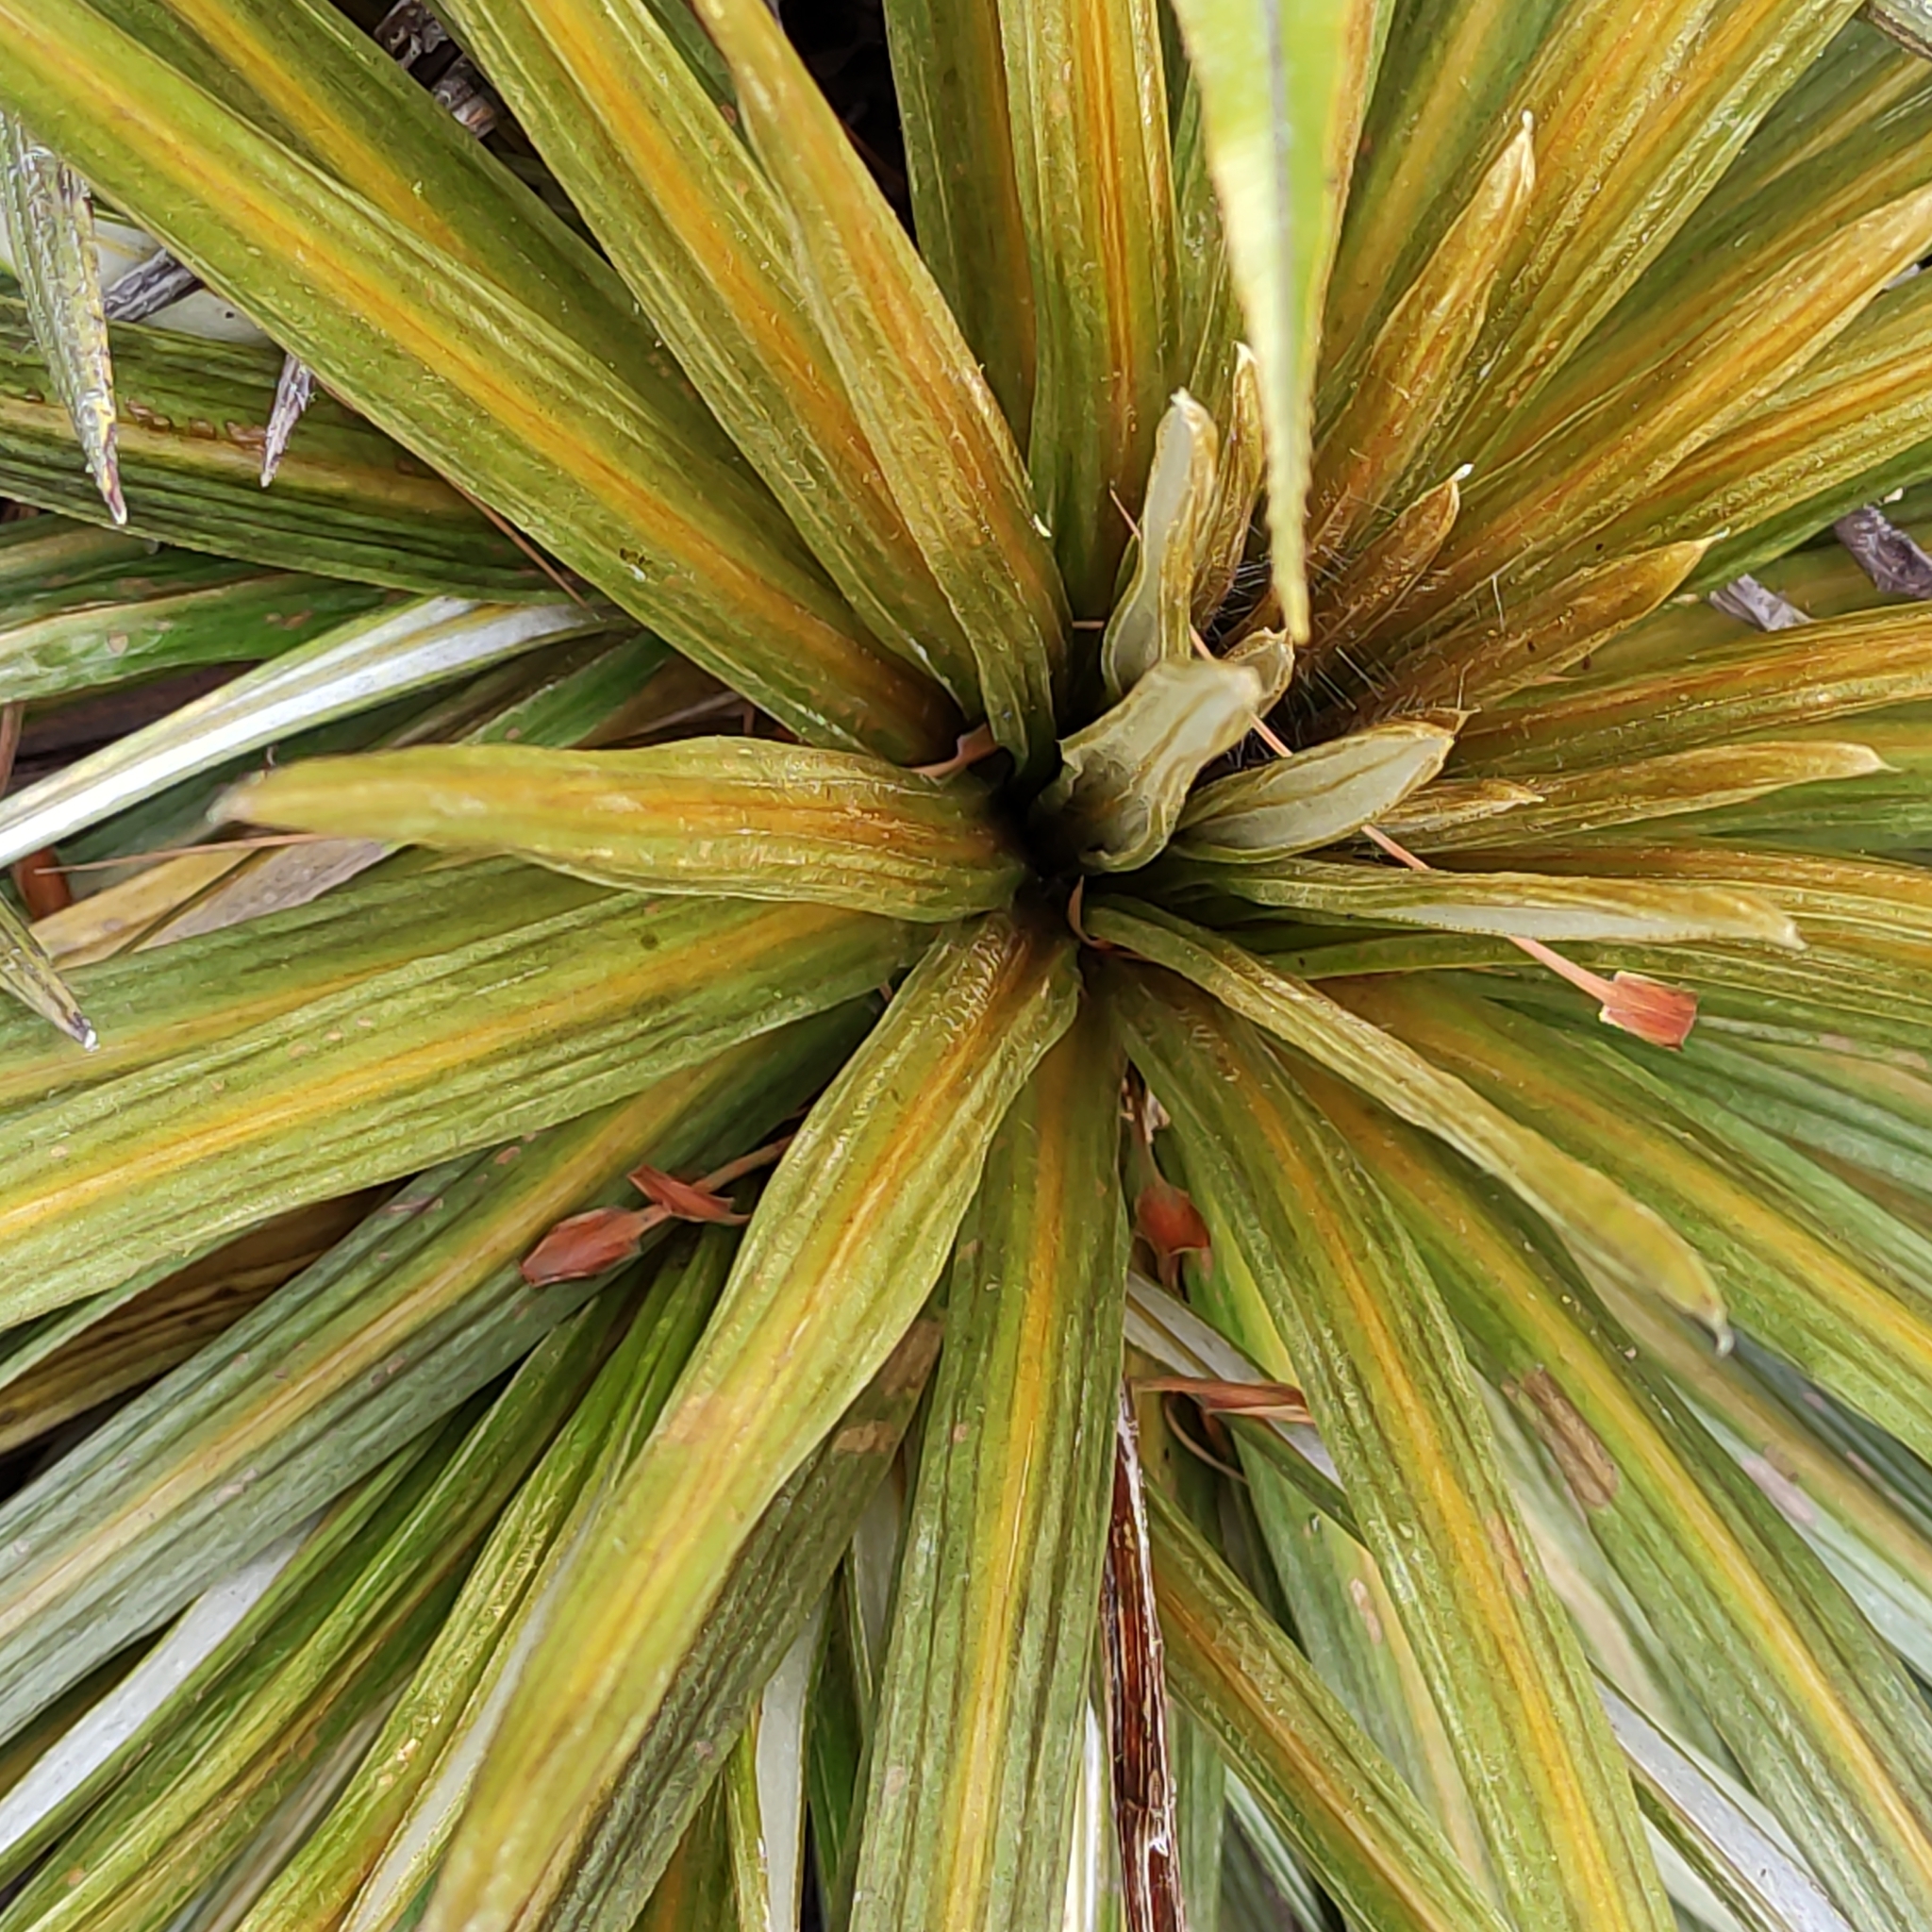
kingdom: Plantae
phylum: Tracheophyta
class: Magnoliopsida
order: Asterales
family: Asteraceae
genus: Celmisia
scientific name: Celmisia armstrongii
